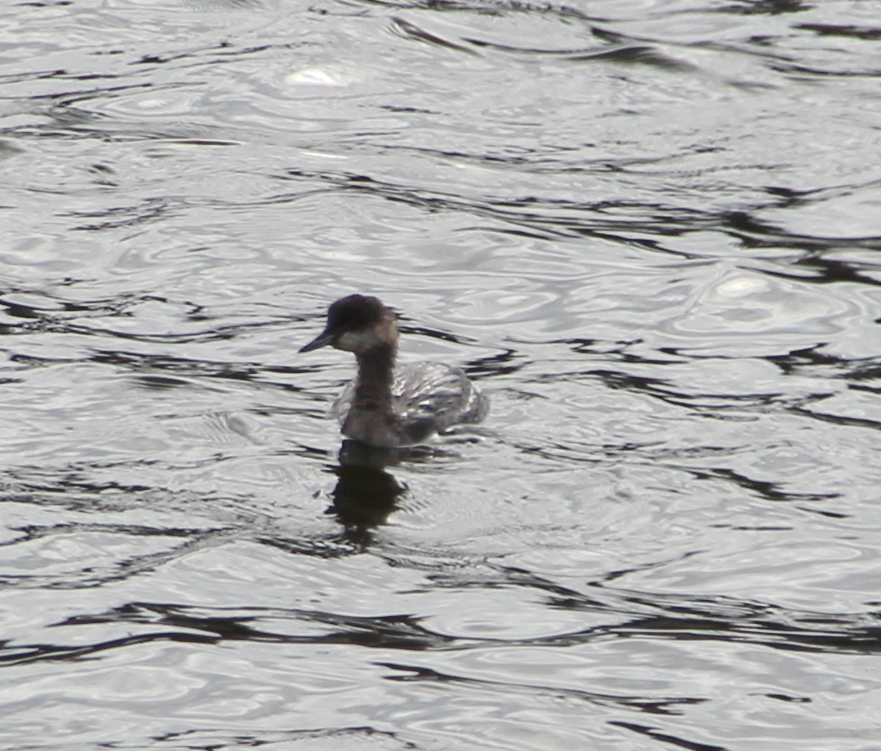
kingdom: Animalia
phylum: Chordata
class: Aves
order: Podicipediformes
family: Podicipedidae
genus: Podiceps
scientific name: Podiceps nigricollis
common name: Black-necked grebe
